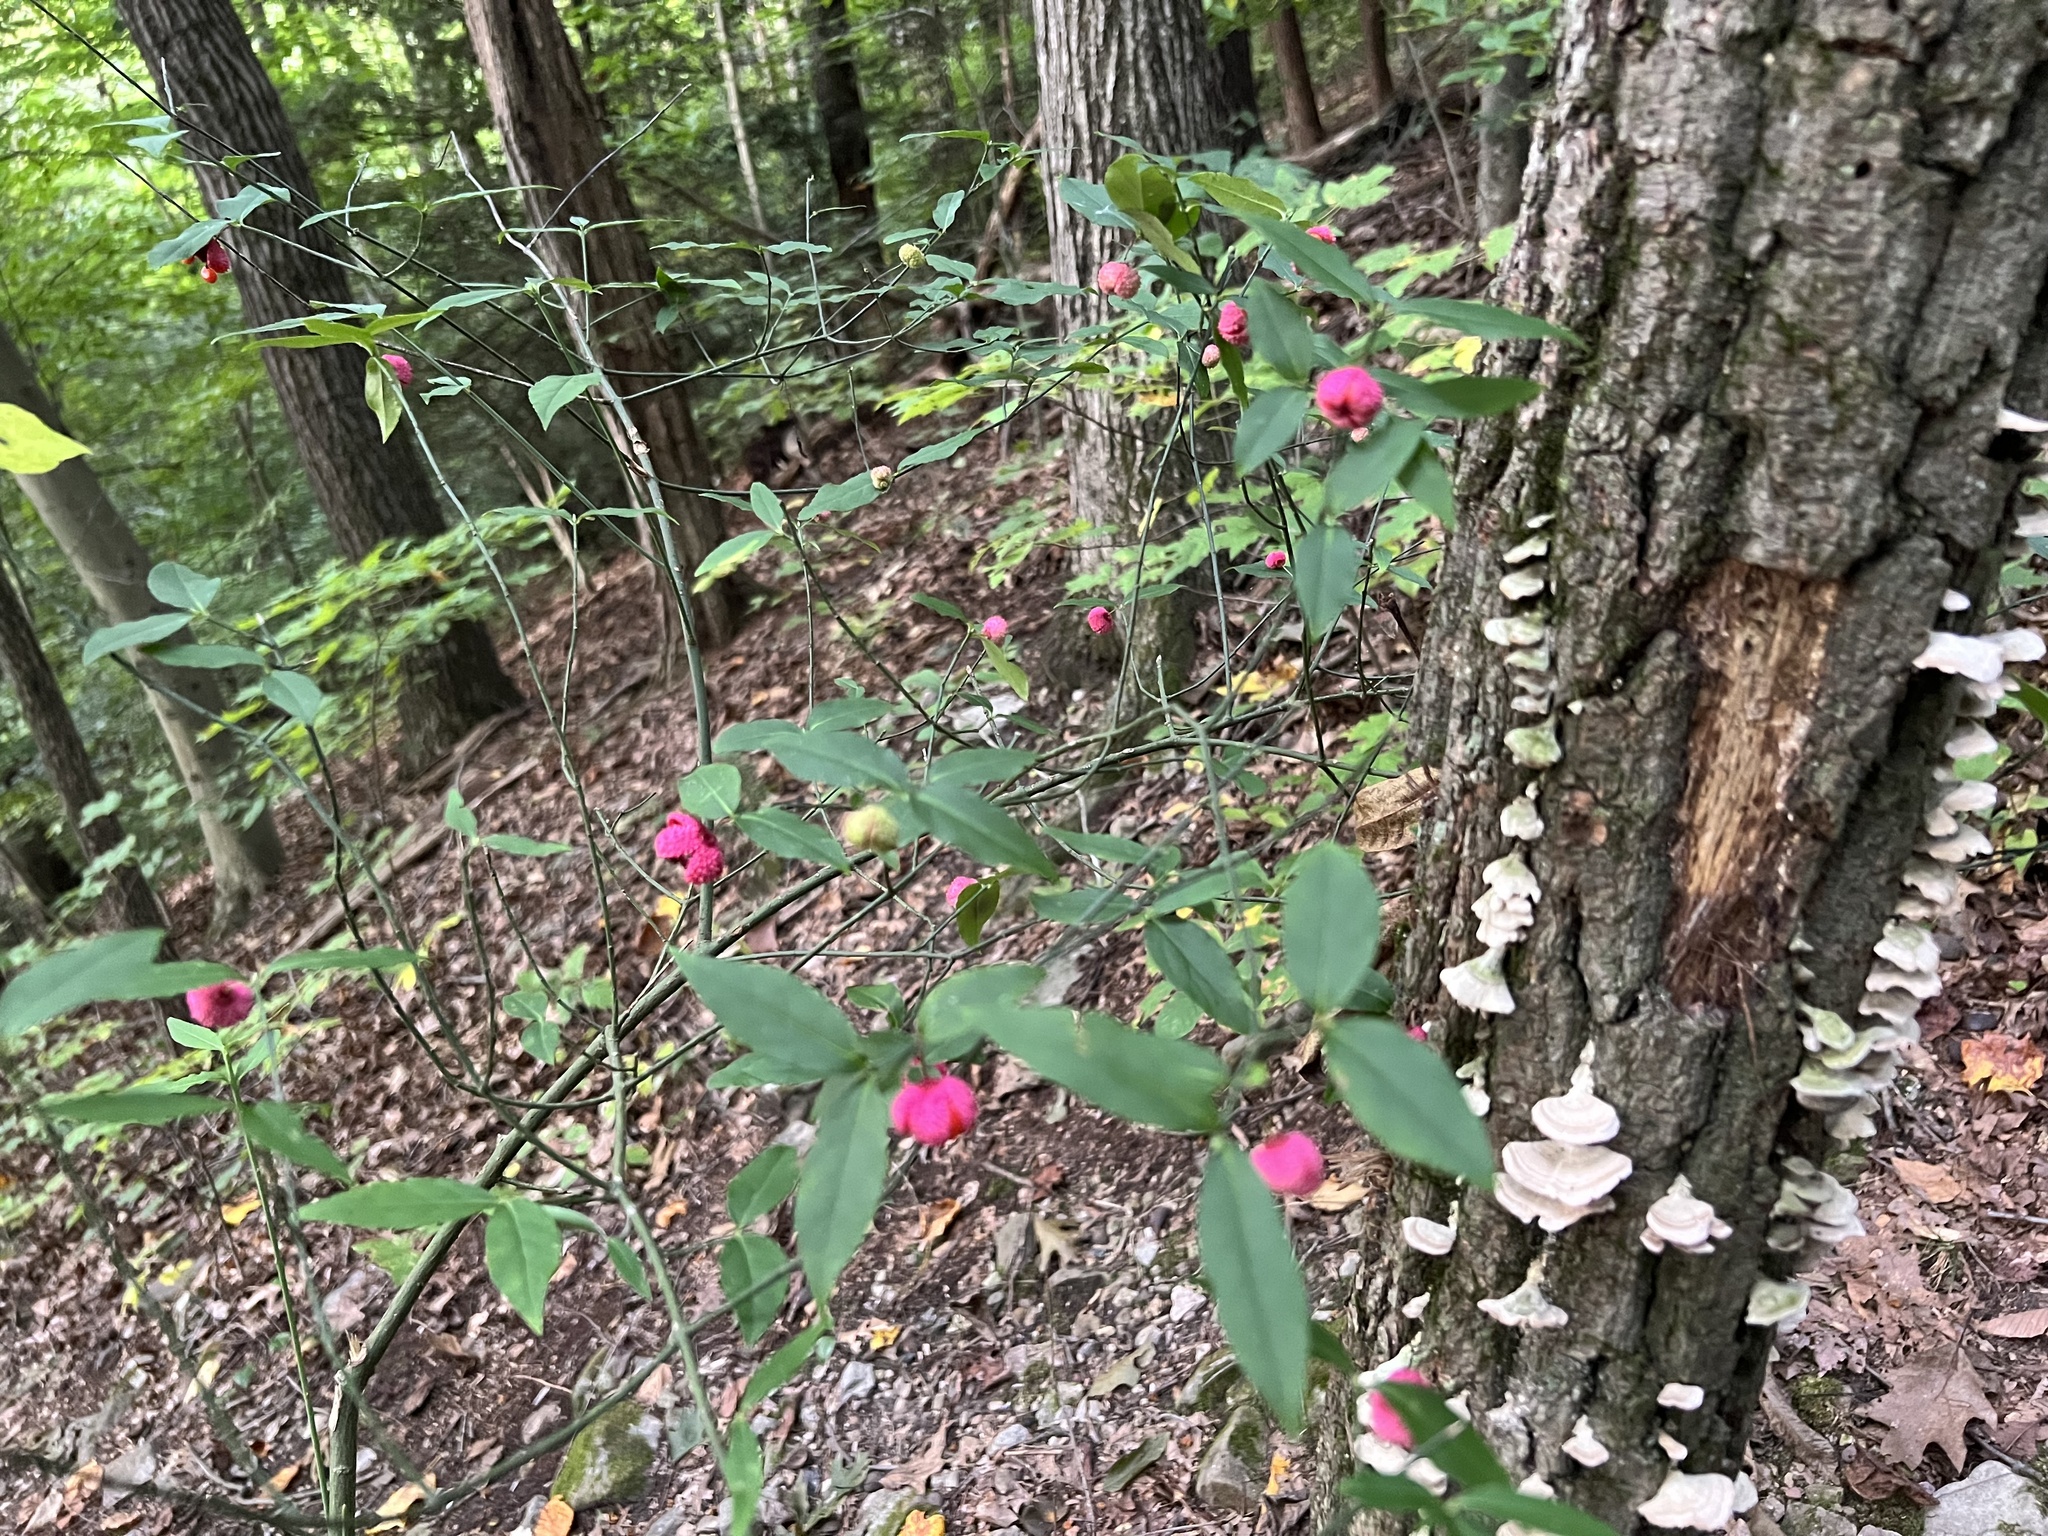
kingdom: Plantae
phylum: Tracheophyta
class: Magnoliopsida
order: Celastrales
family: Celastraceae
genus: Euonymus
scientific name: Euonymus americanus
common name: Bursting-heart
